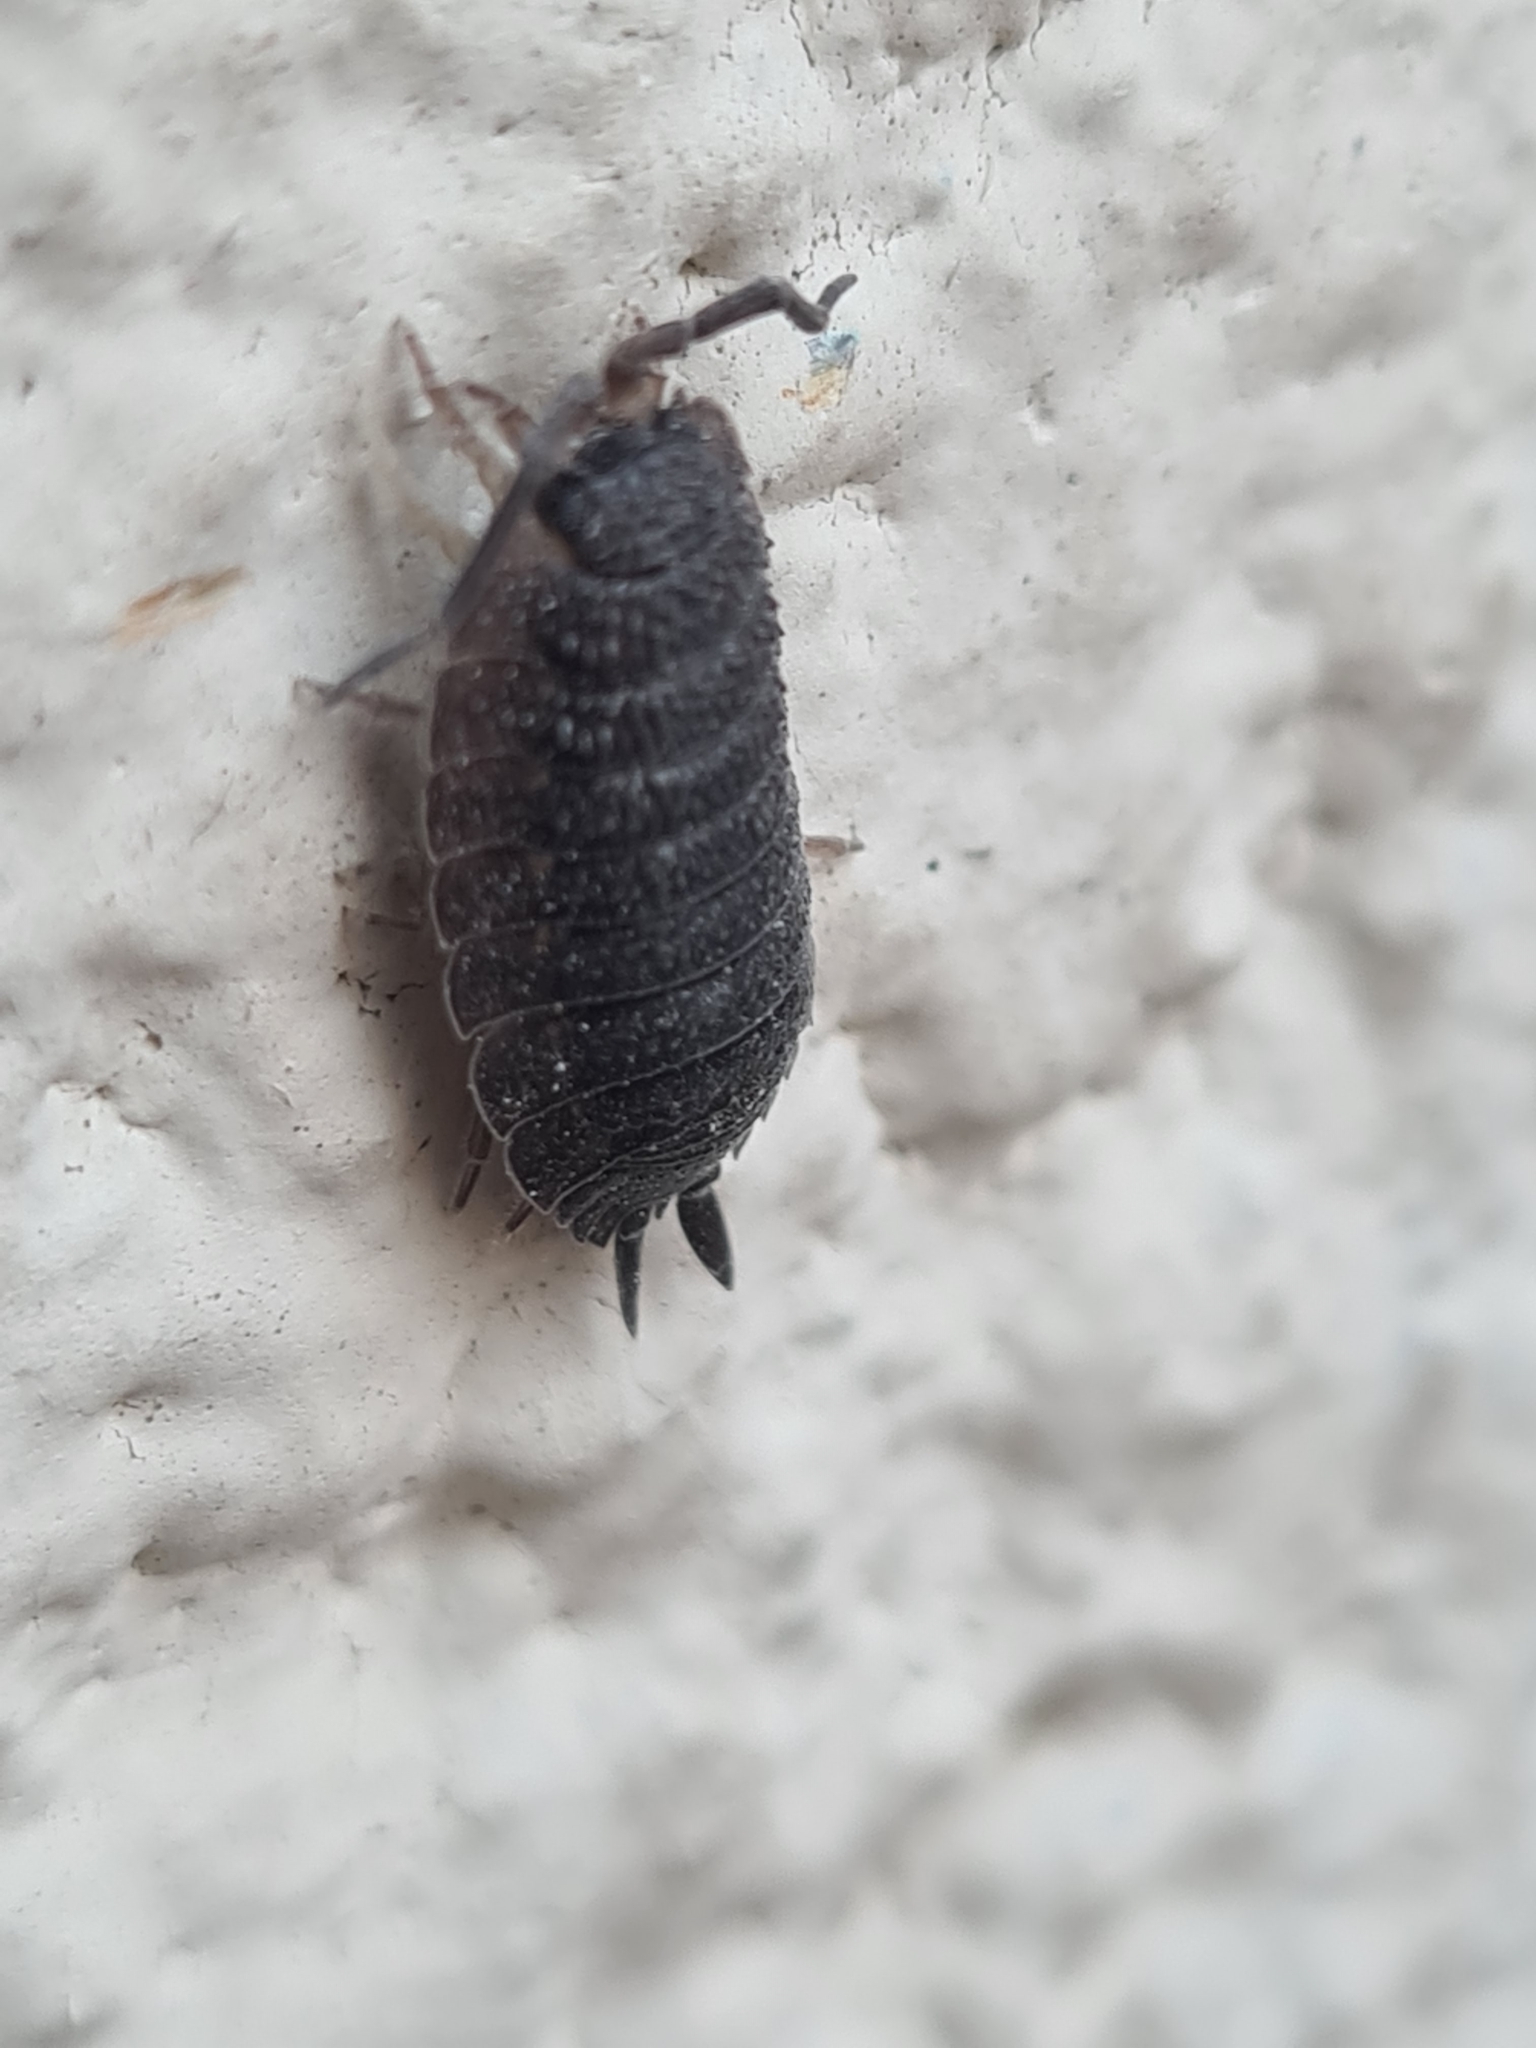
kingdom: Animalia
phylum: Arthropoda
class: Malacostraca
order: Isopoda
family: Porcellionidae
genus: Porcellio
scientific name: Porcellio scaber
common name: Common rough woodlouse
